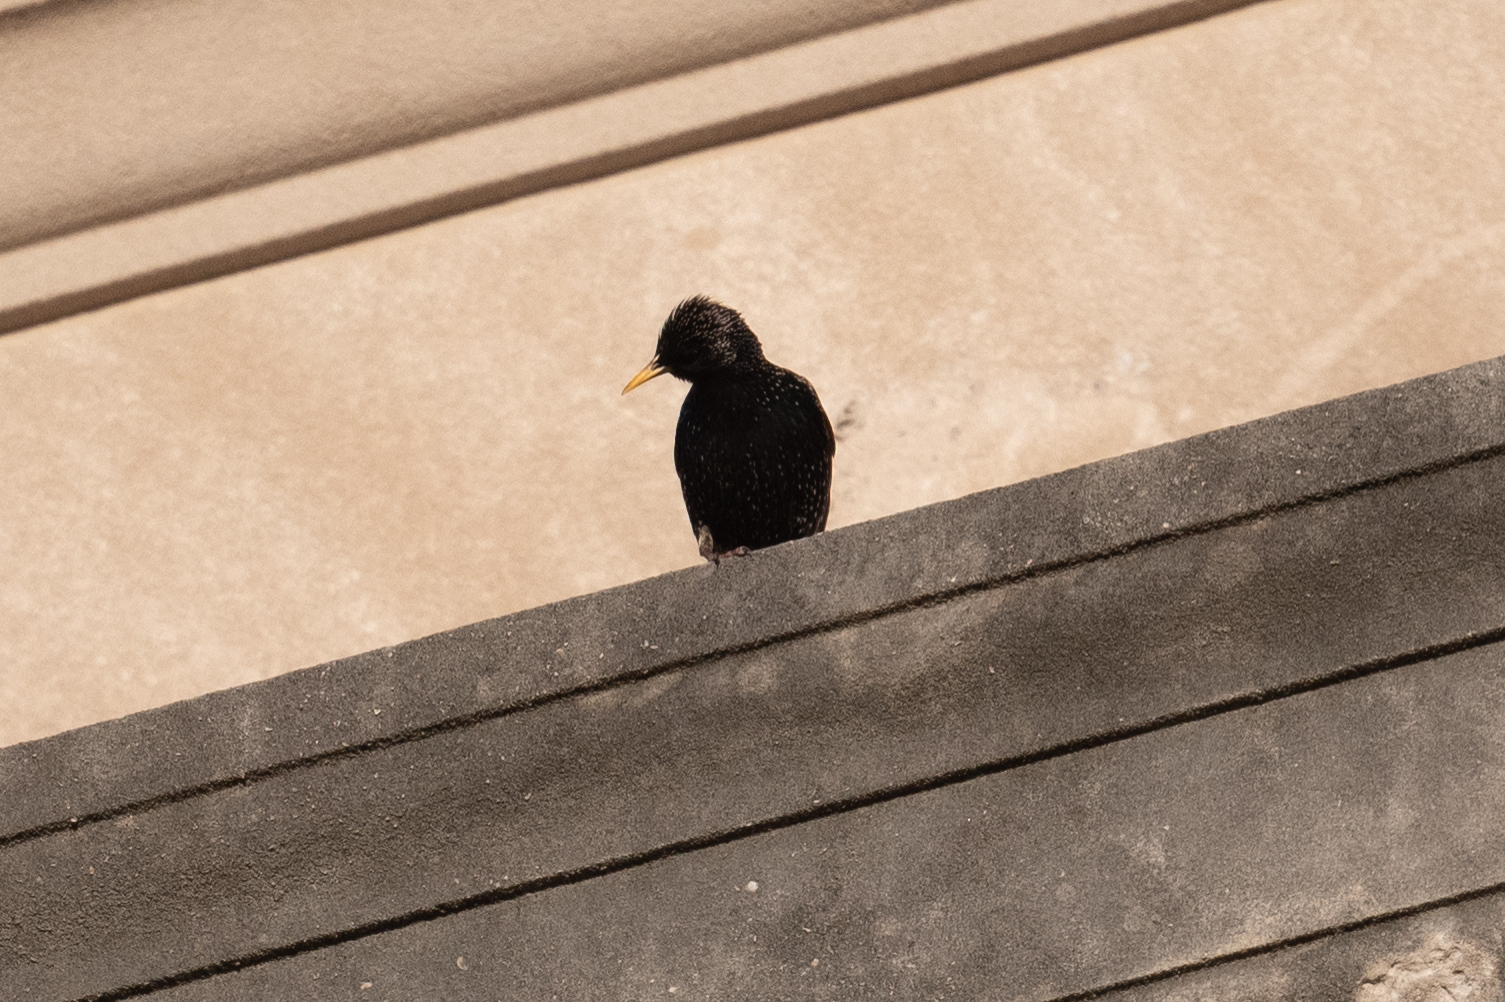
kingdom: Animalia
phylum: Chordata
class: Aves
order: Passeriformes
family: Sturnidae
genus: Sturnus
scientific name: Sturnus vulgaris
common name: Common starling
